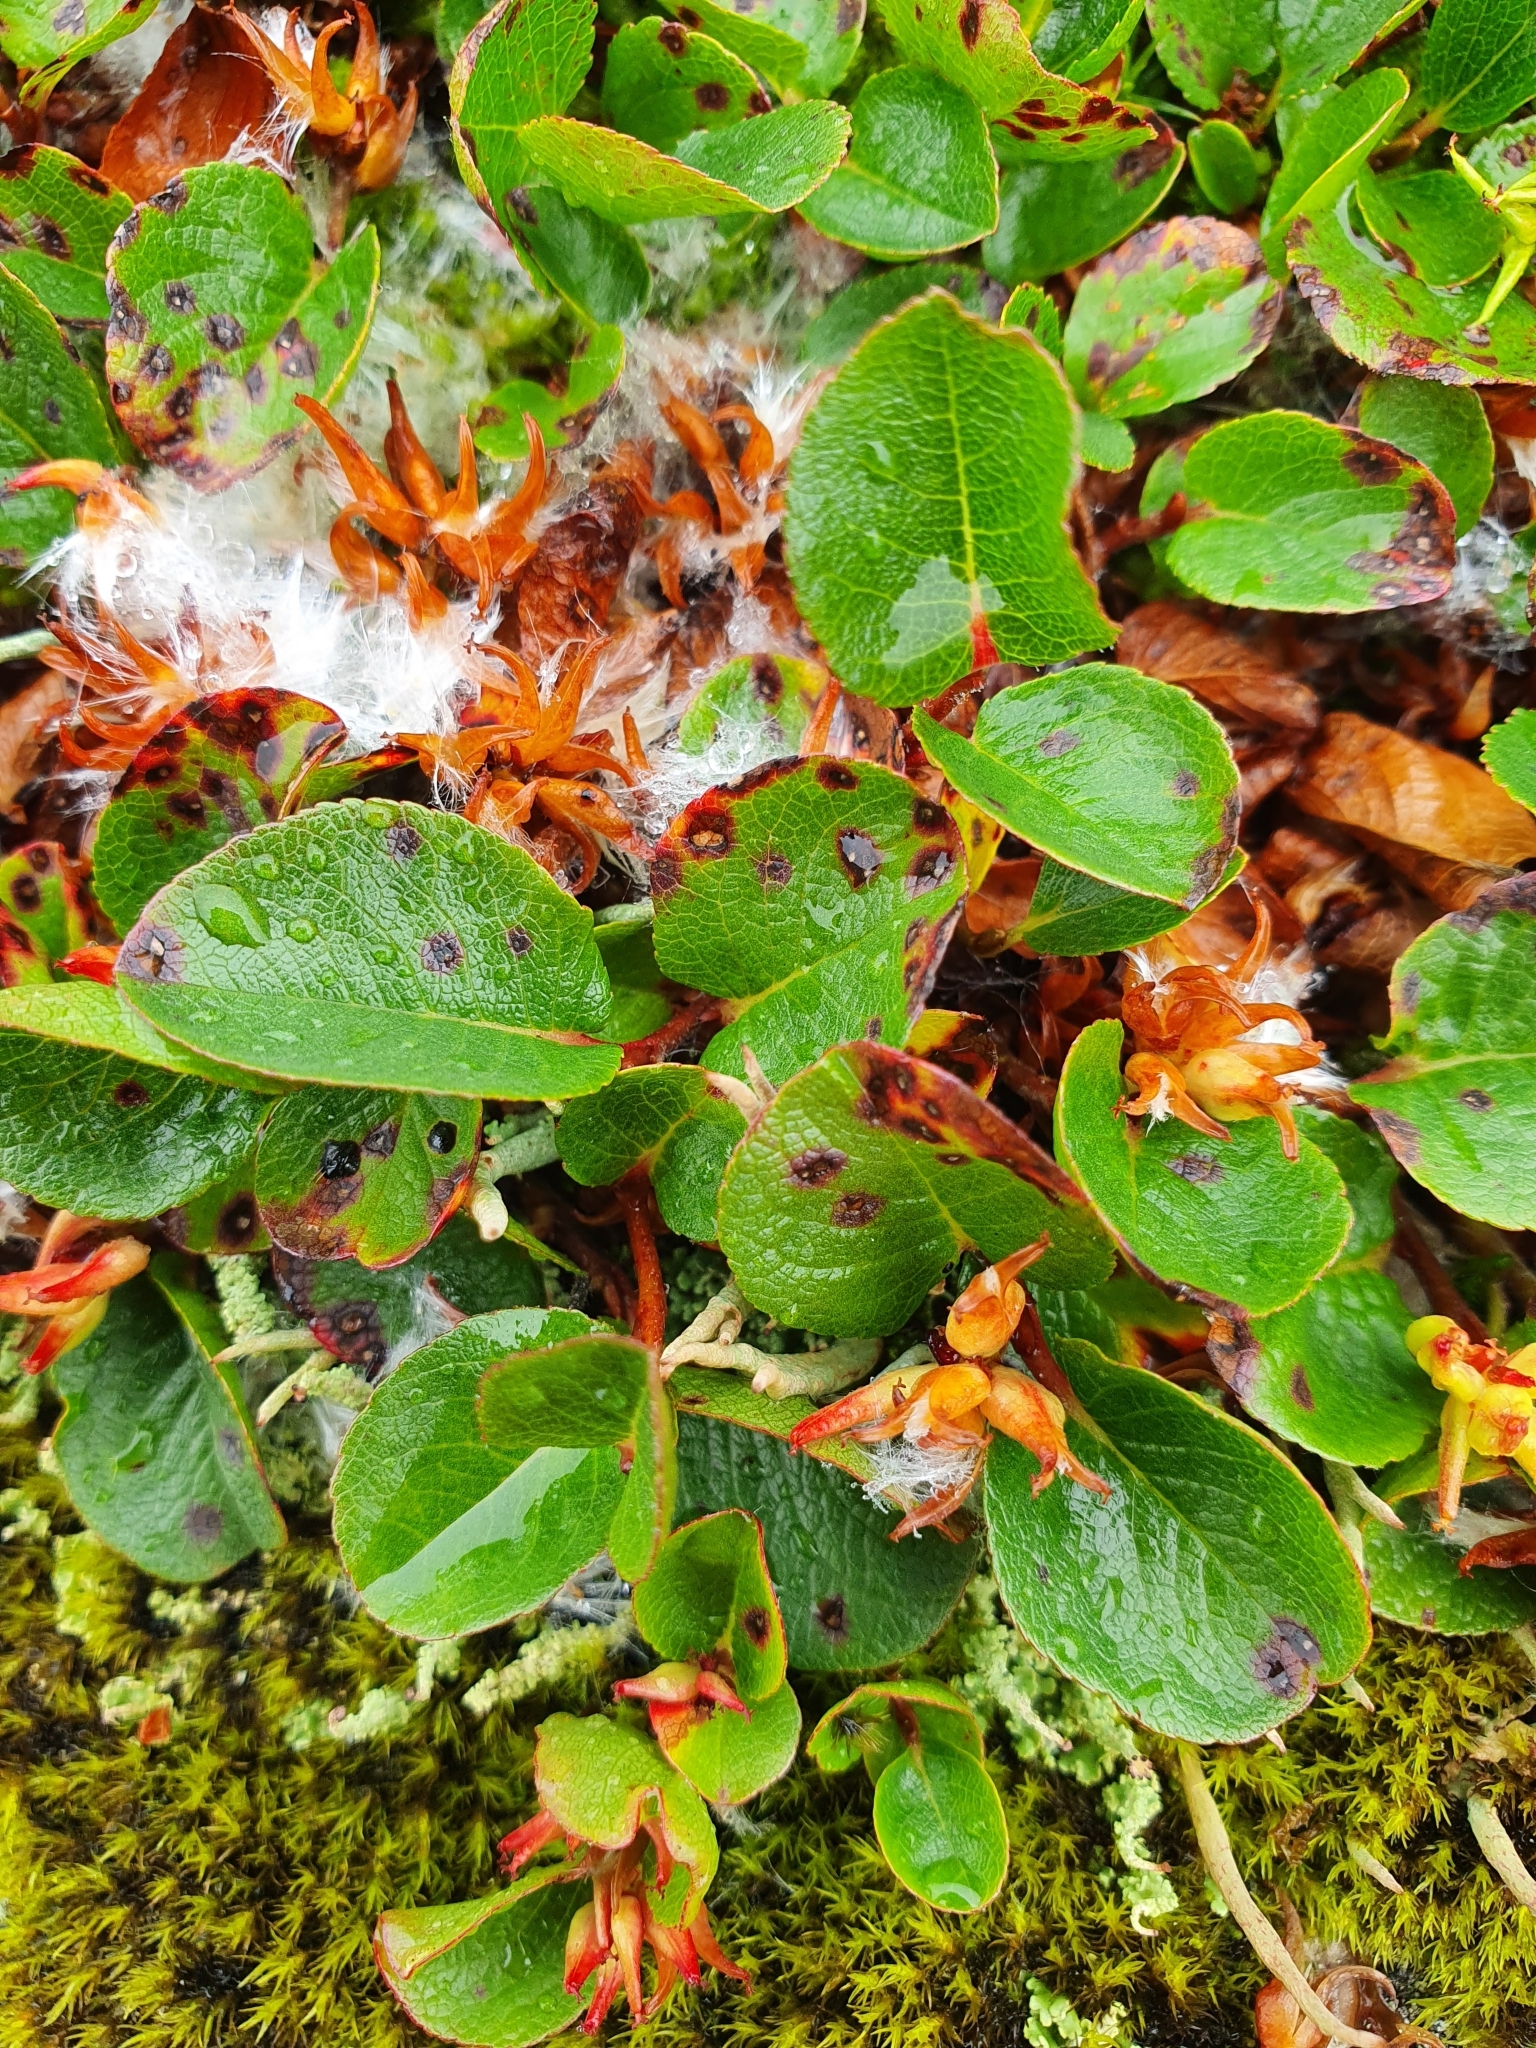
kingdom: Plantae
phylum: Tracheophyta
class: Magnoliopsida
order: Malpighiales
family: Salicaceae
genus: Salix
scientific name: Salix herbacea
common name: Dwarf willow
